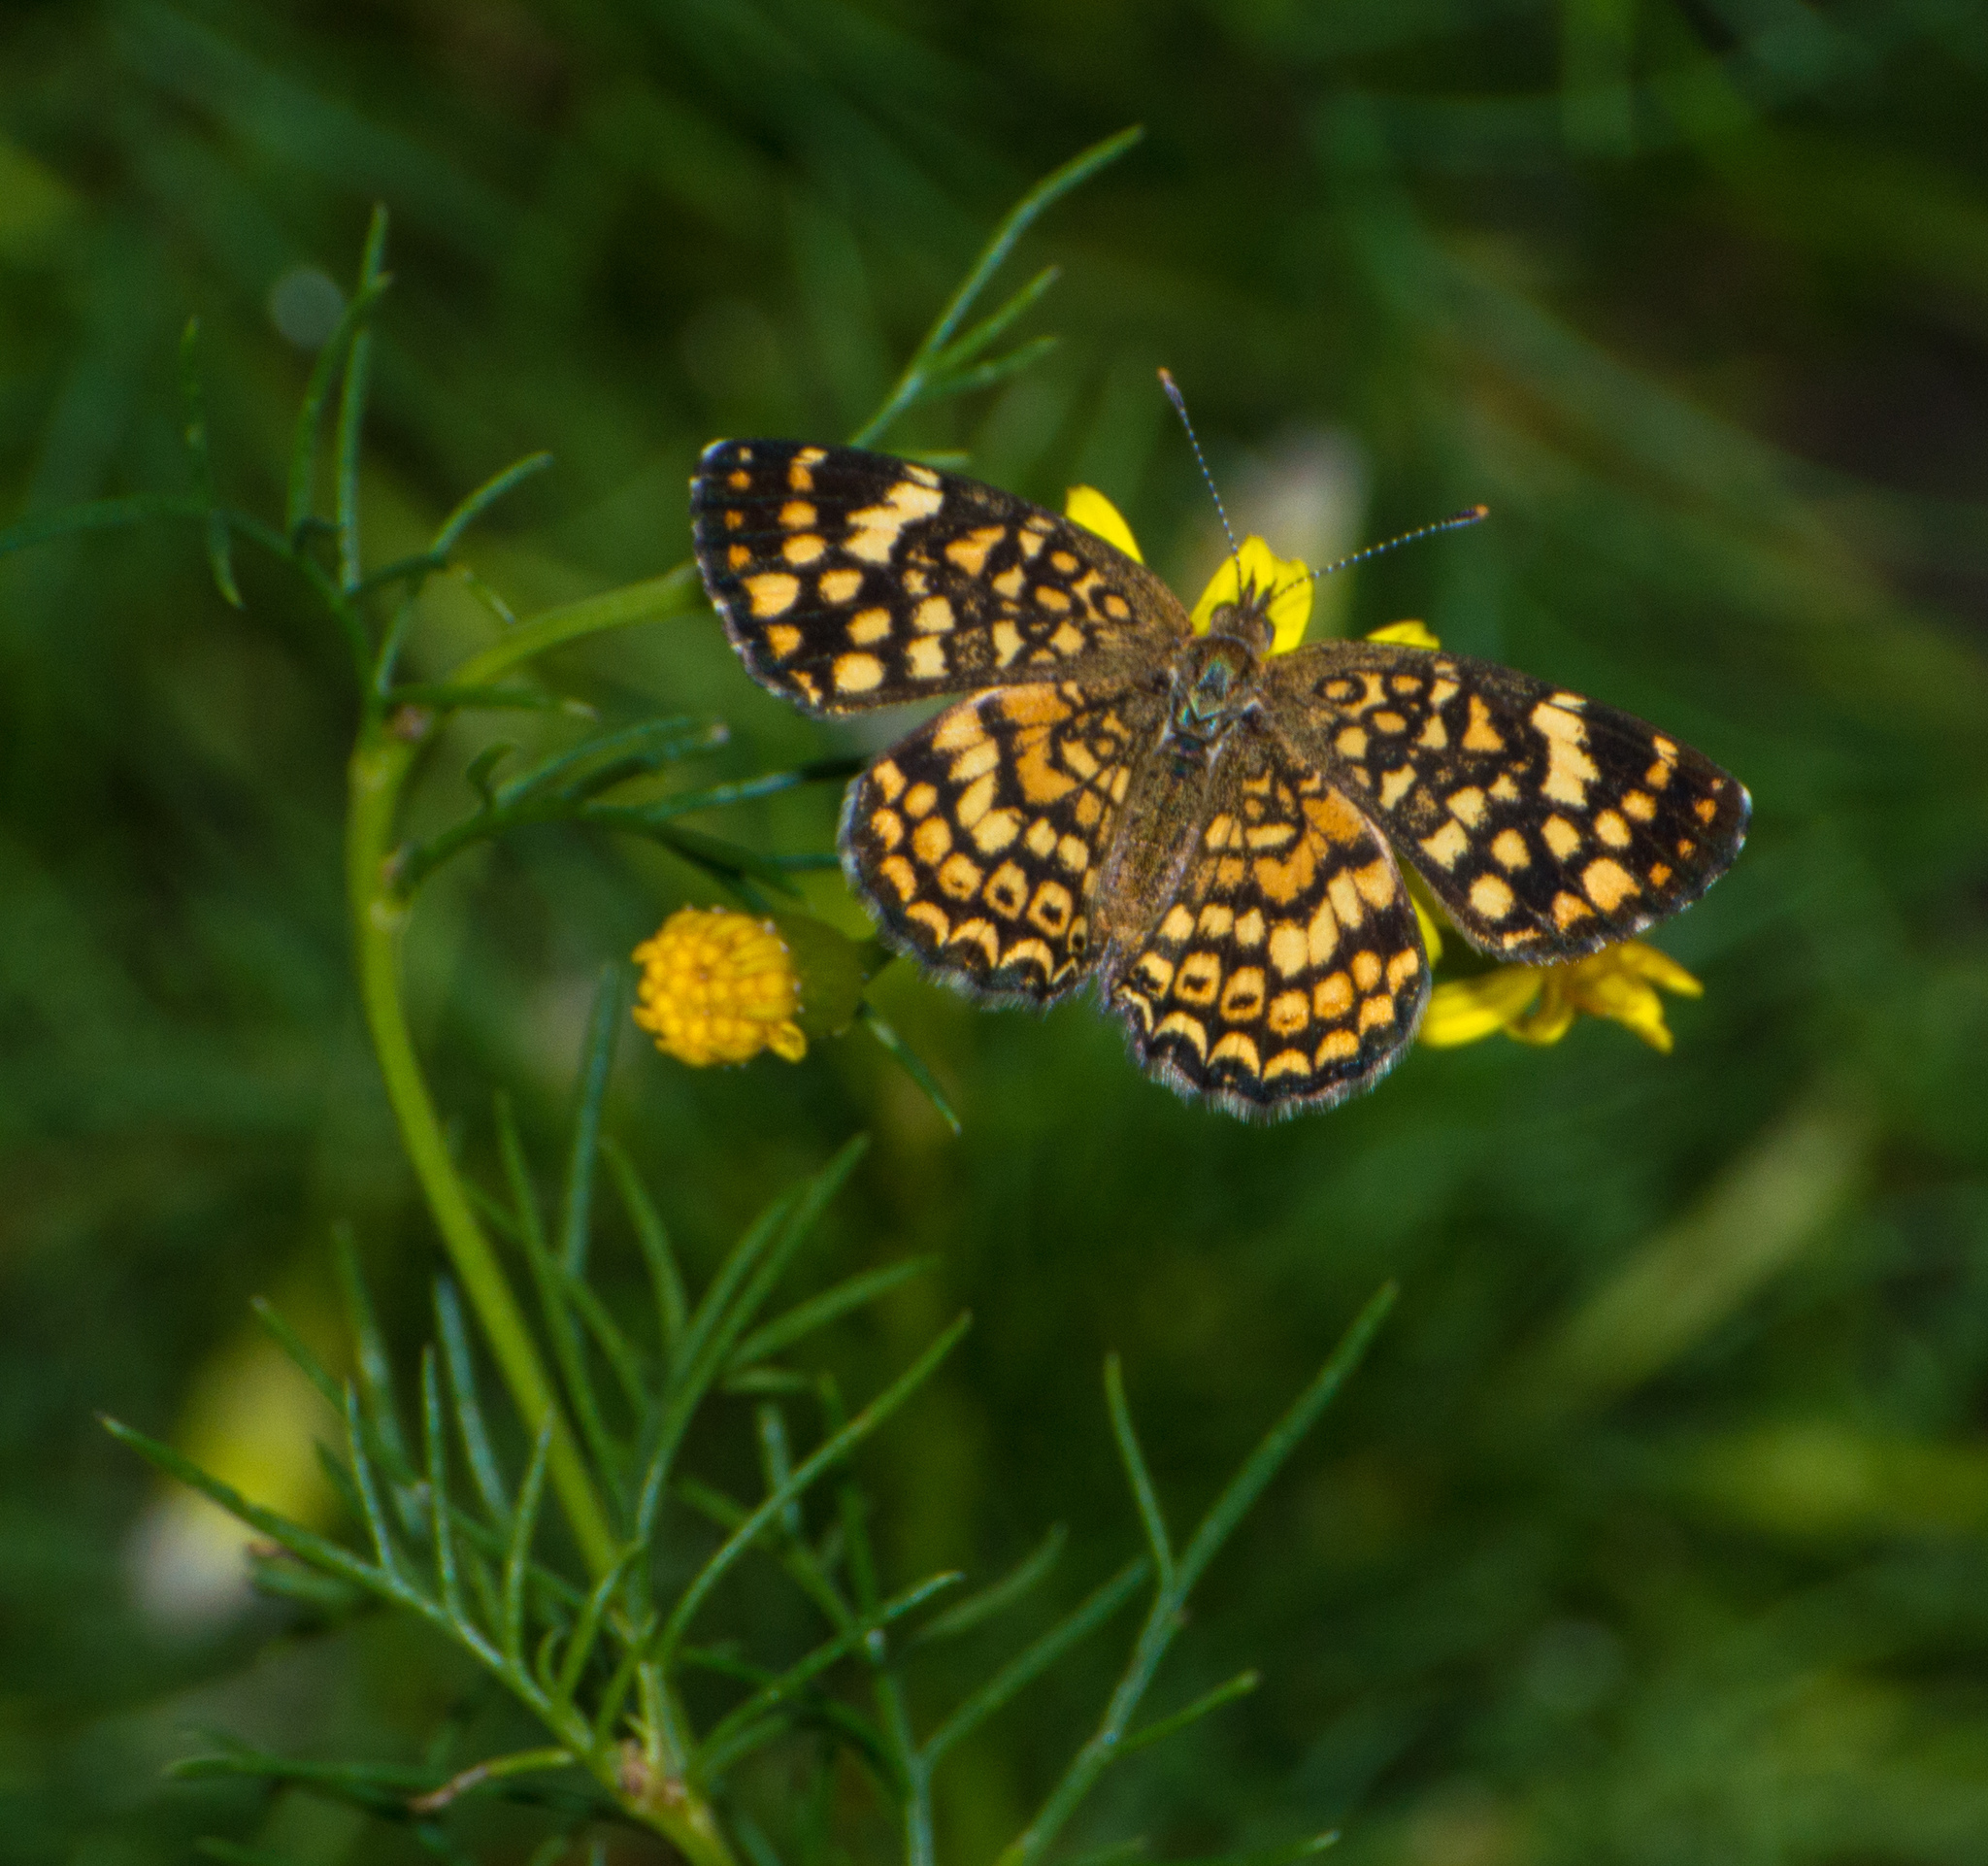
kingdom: Animalia
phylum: Arthropoda
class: Insecta
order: Lepidoptera
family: Nymphalidae
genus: Phystis
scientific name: Phystis simois
